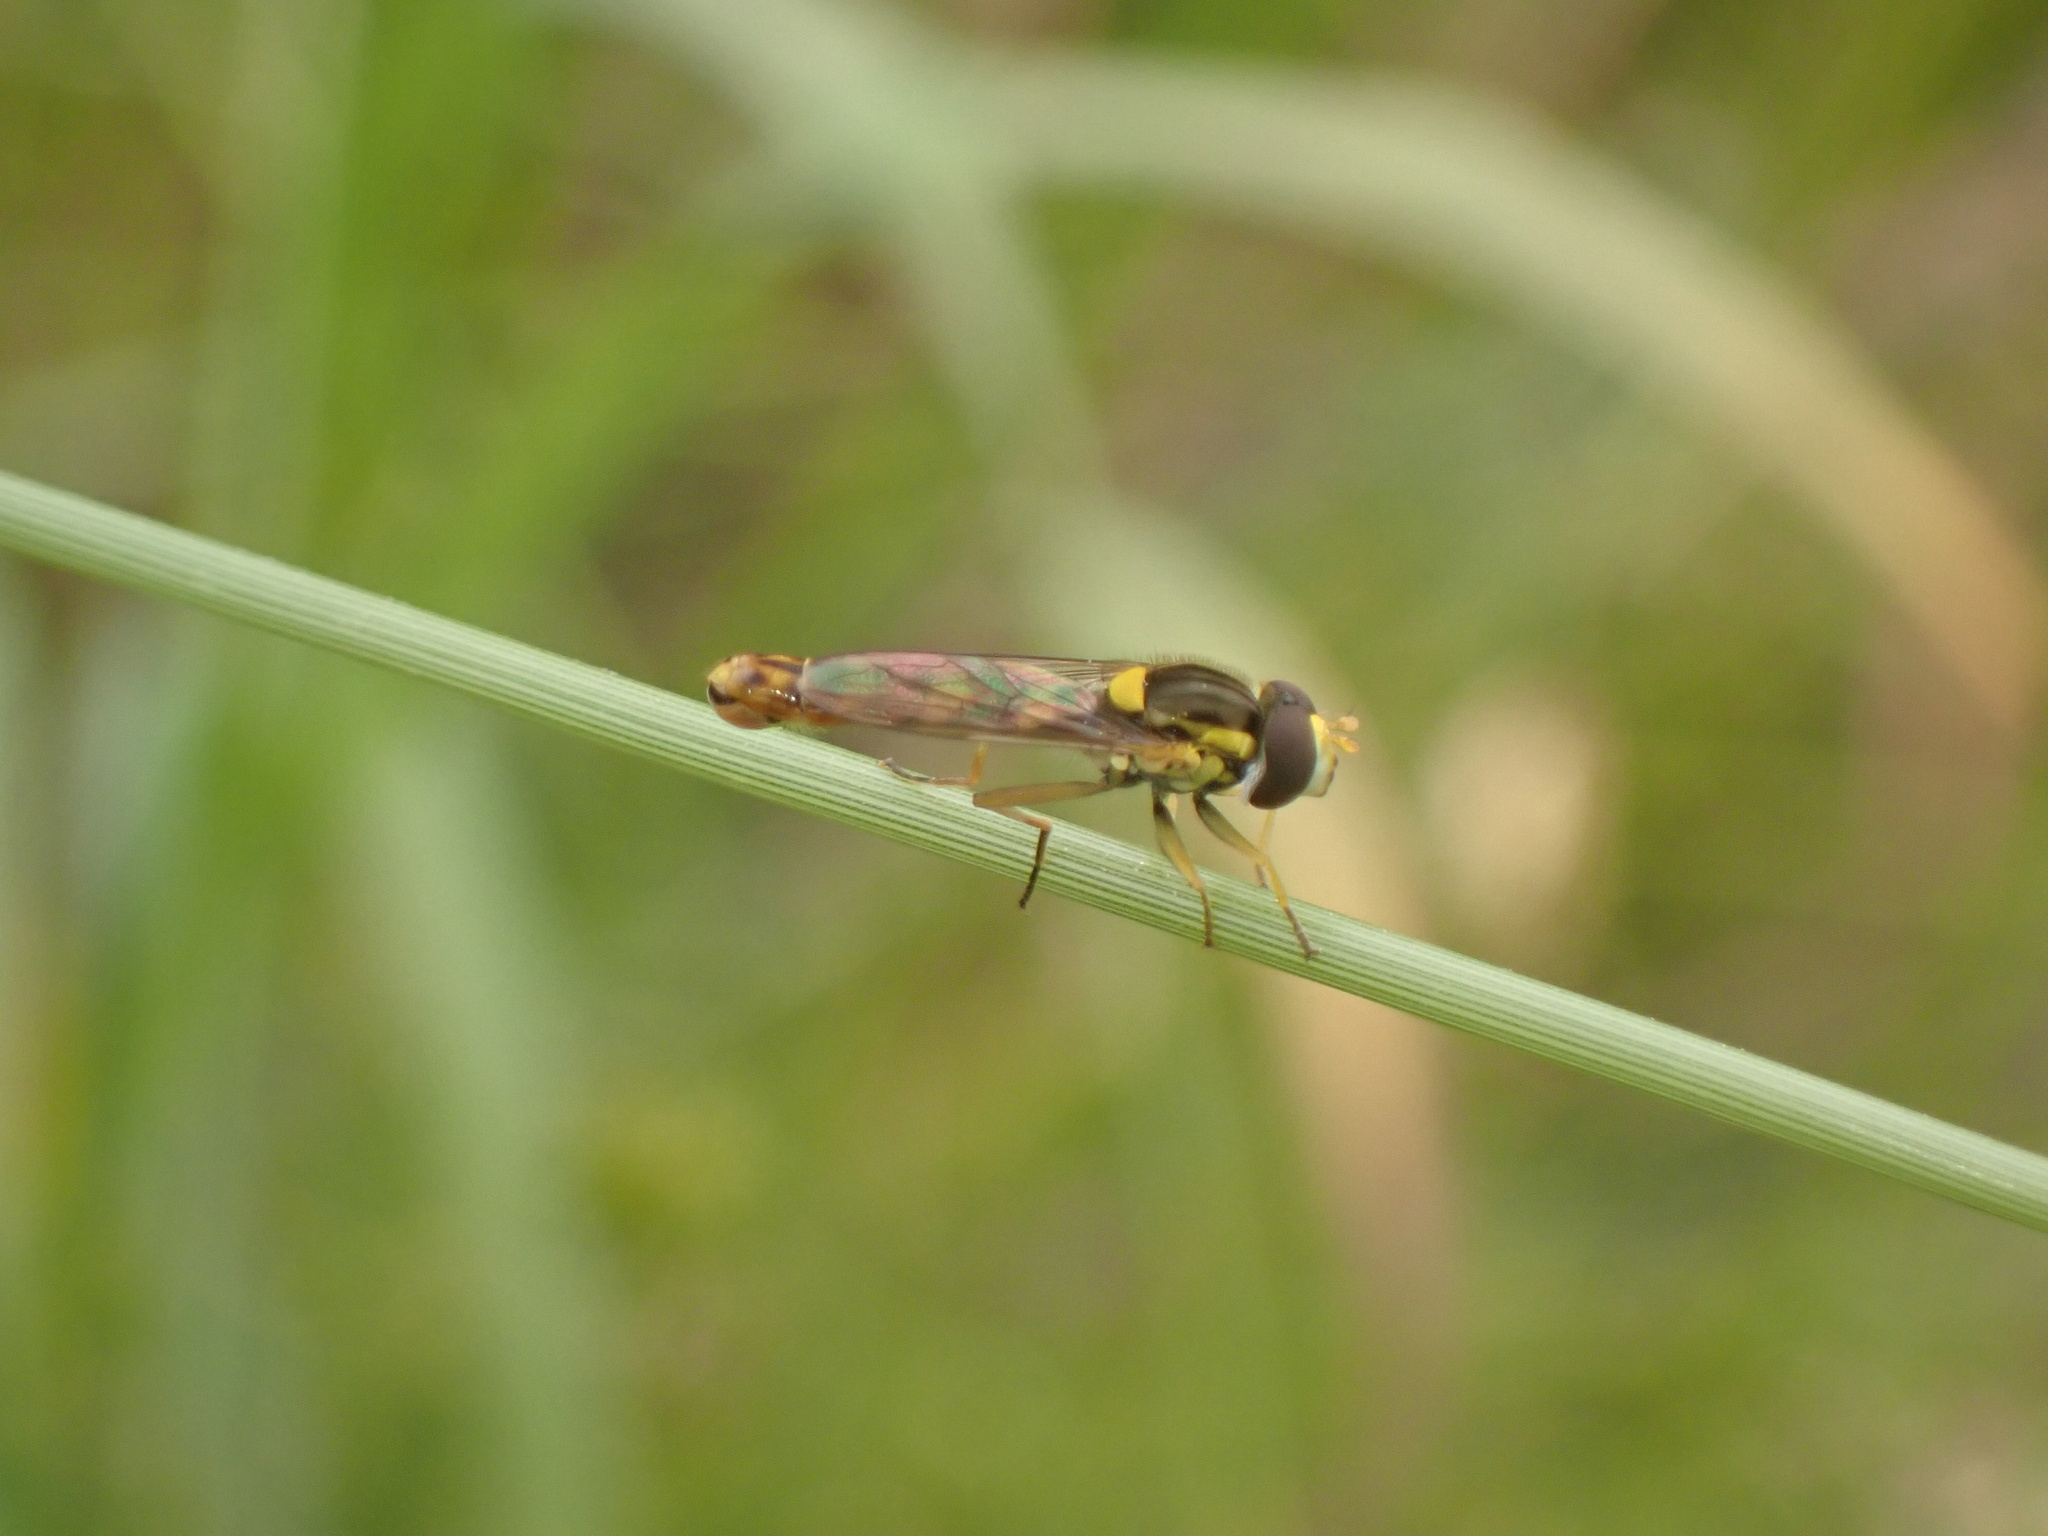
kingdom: Animalia
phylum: Arthropoda
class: Insecta
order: Diptera
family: Syrphidae
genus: Sphaerophoria
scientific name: Sphaerophoria scripta
